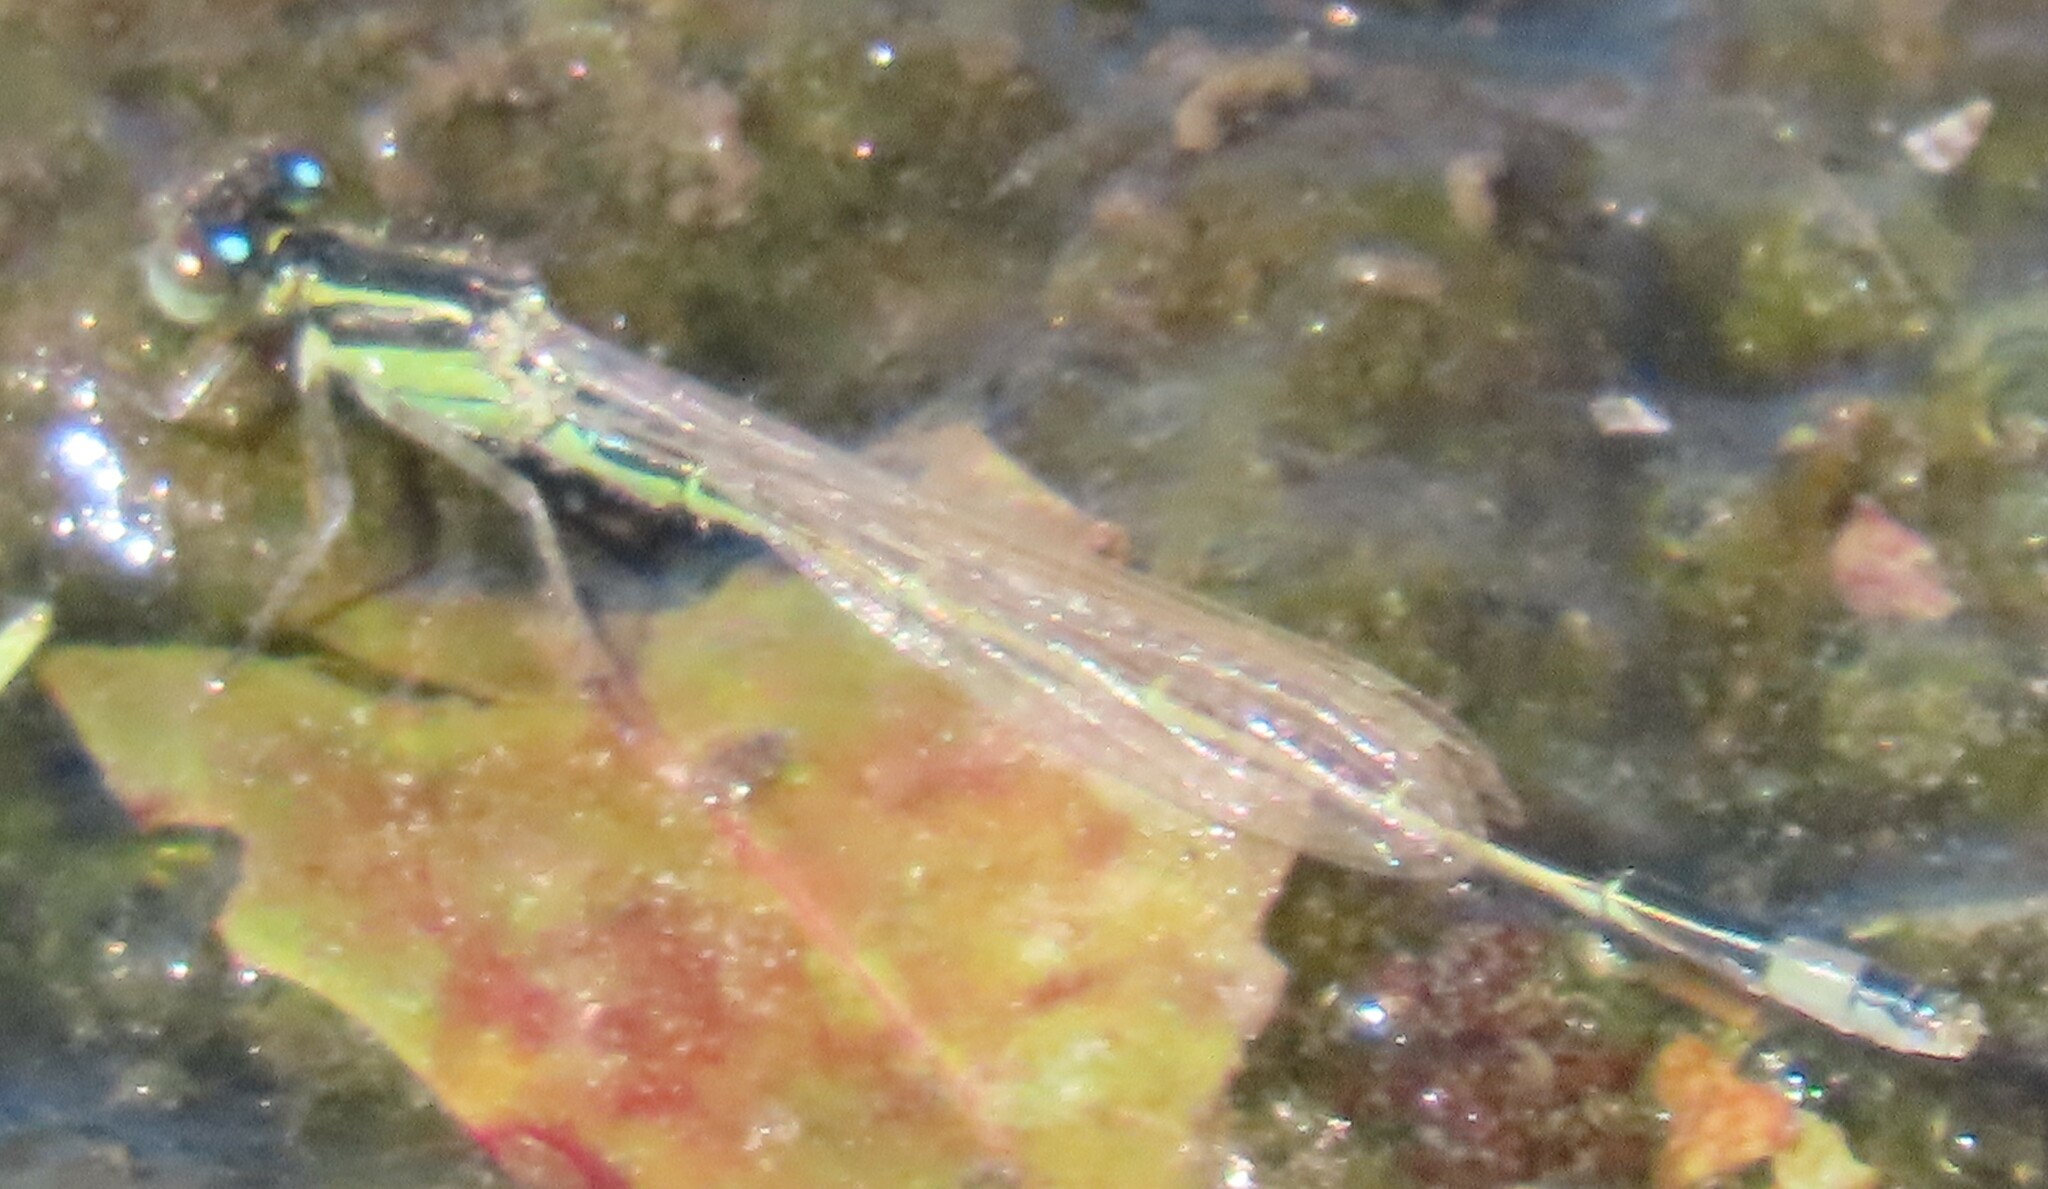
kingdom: Animalia
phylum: Arthropoda
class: Insecta
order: Odonata
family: Coenagrionidae
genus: Ischnura
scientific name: Ischnura ramburii
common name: Rambur's forktail
